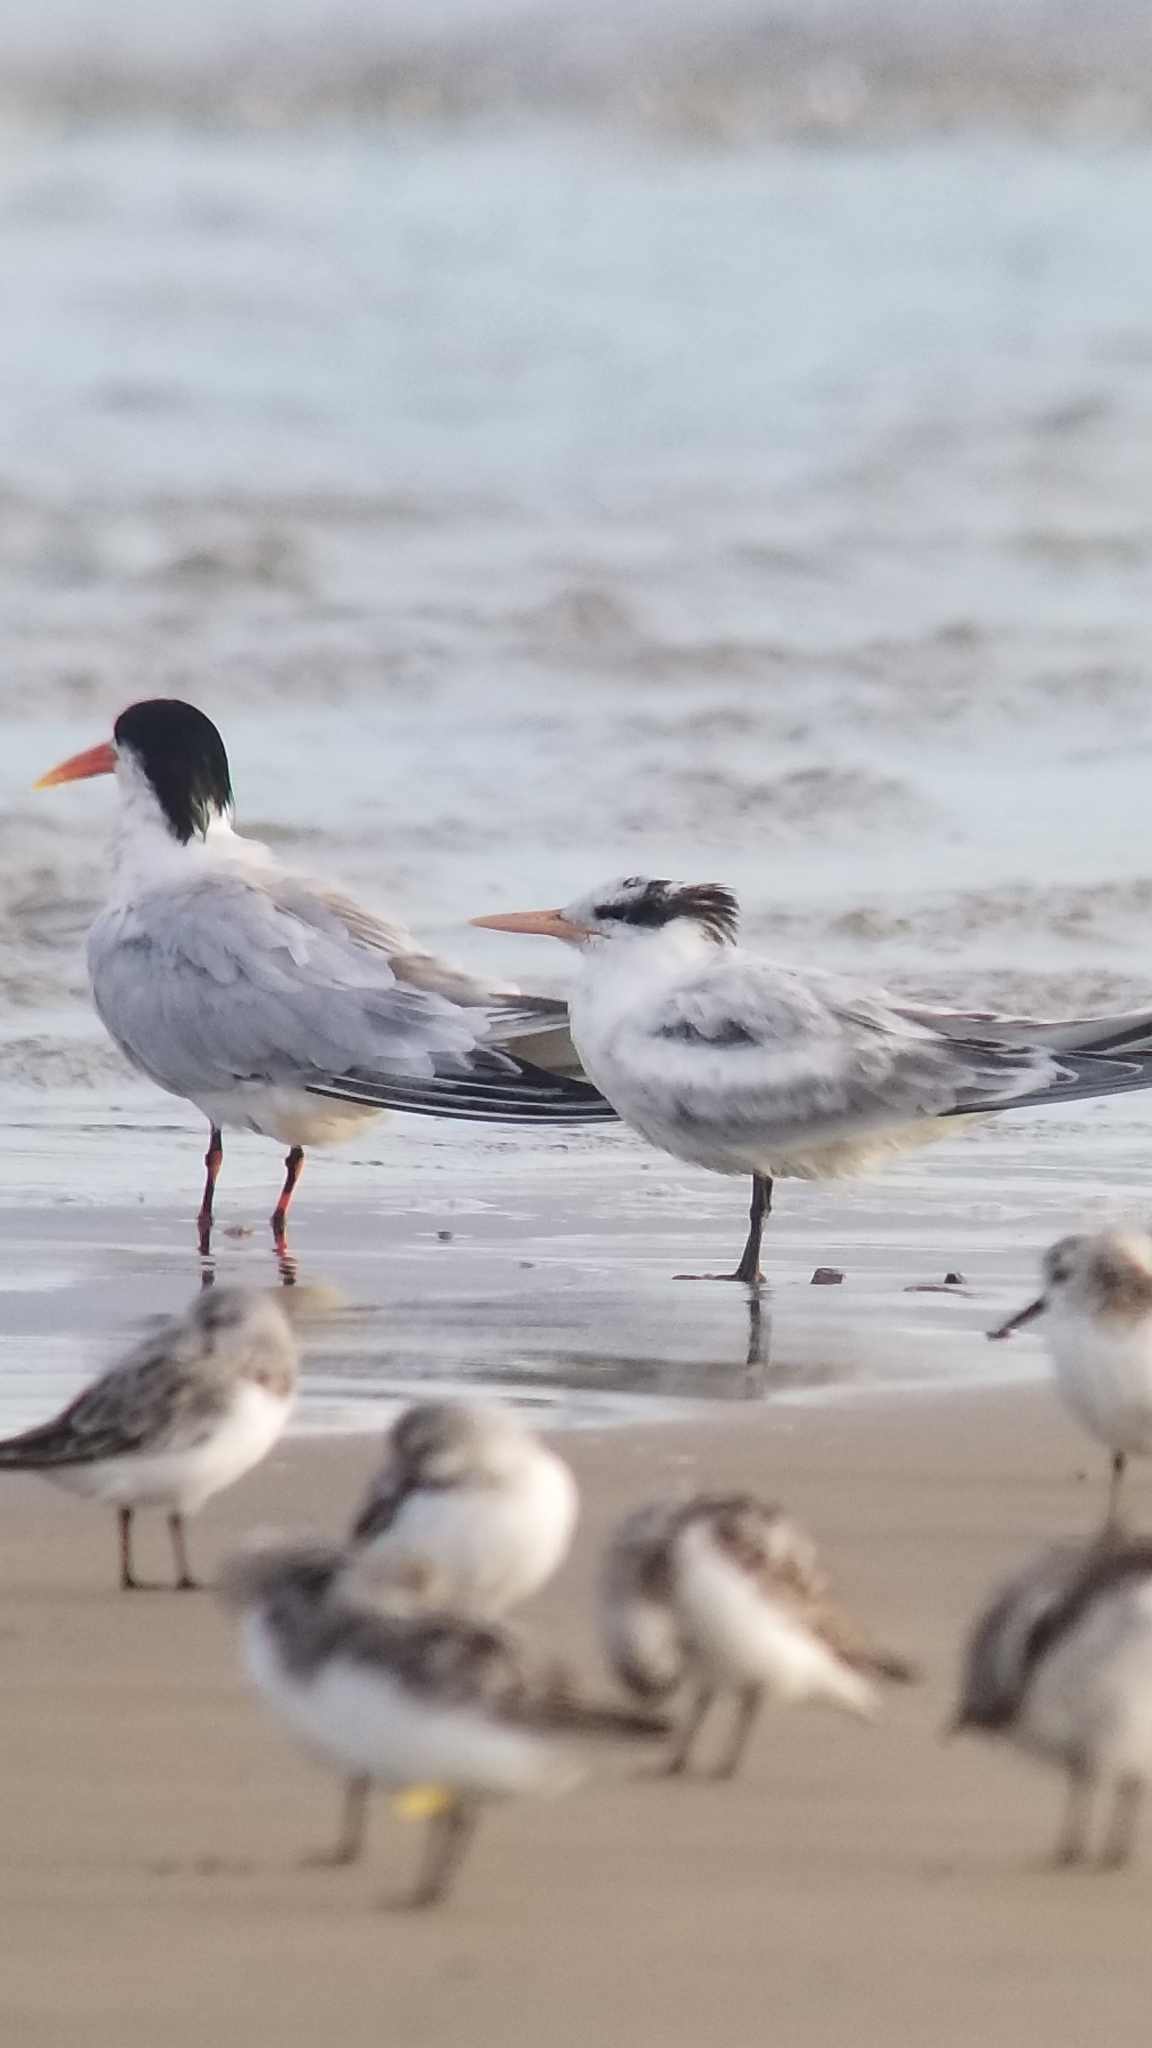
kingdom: Animalia
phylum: Chordata
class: Aves
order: Charadriiformes
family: Laridae
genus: Thalasseus
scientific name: Thalasseus maximus
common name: Royal tern
